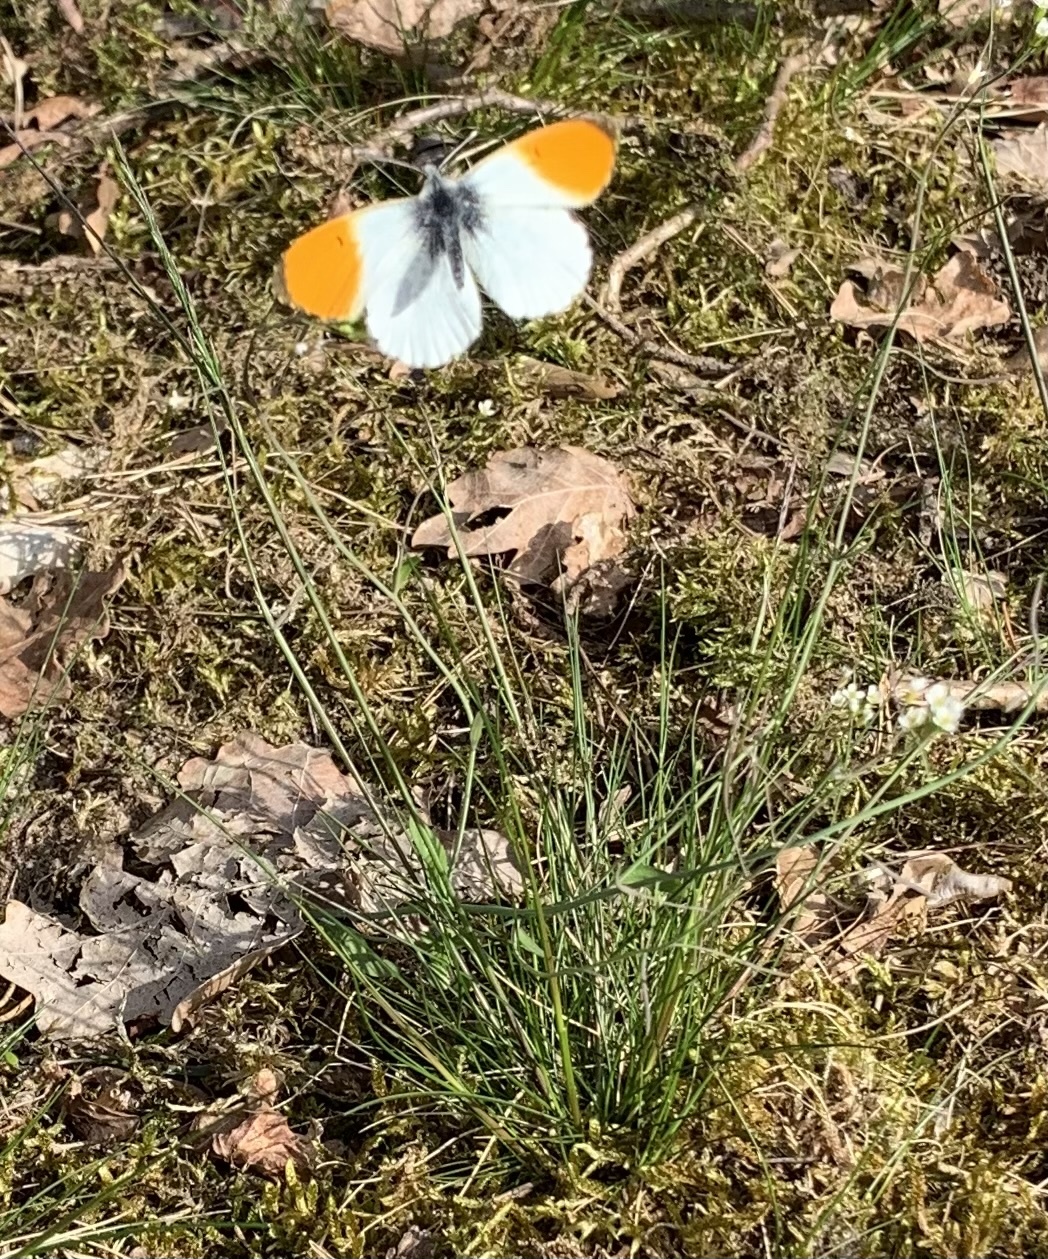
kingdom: Animalia
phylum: Arthropoda
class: Insecta
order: Lepidoptera
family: Pieridae
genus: Anthocharis
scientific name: Anthocharis cardamines
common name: Orange-tip
